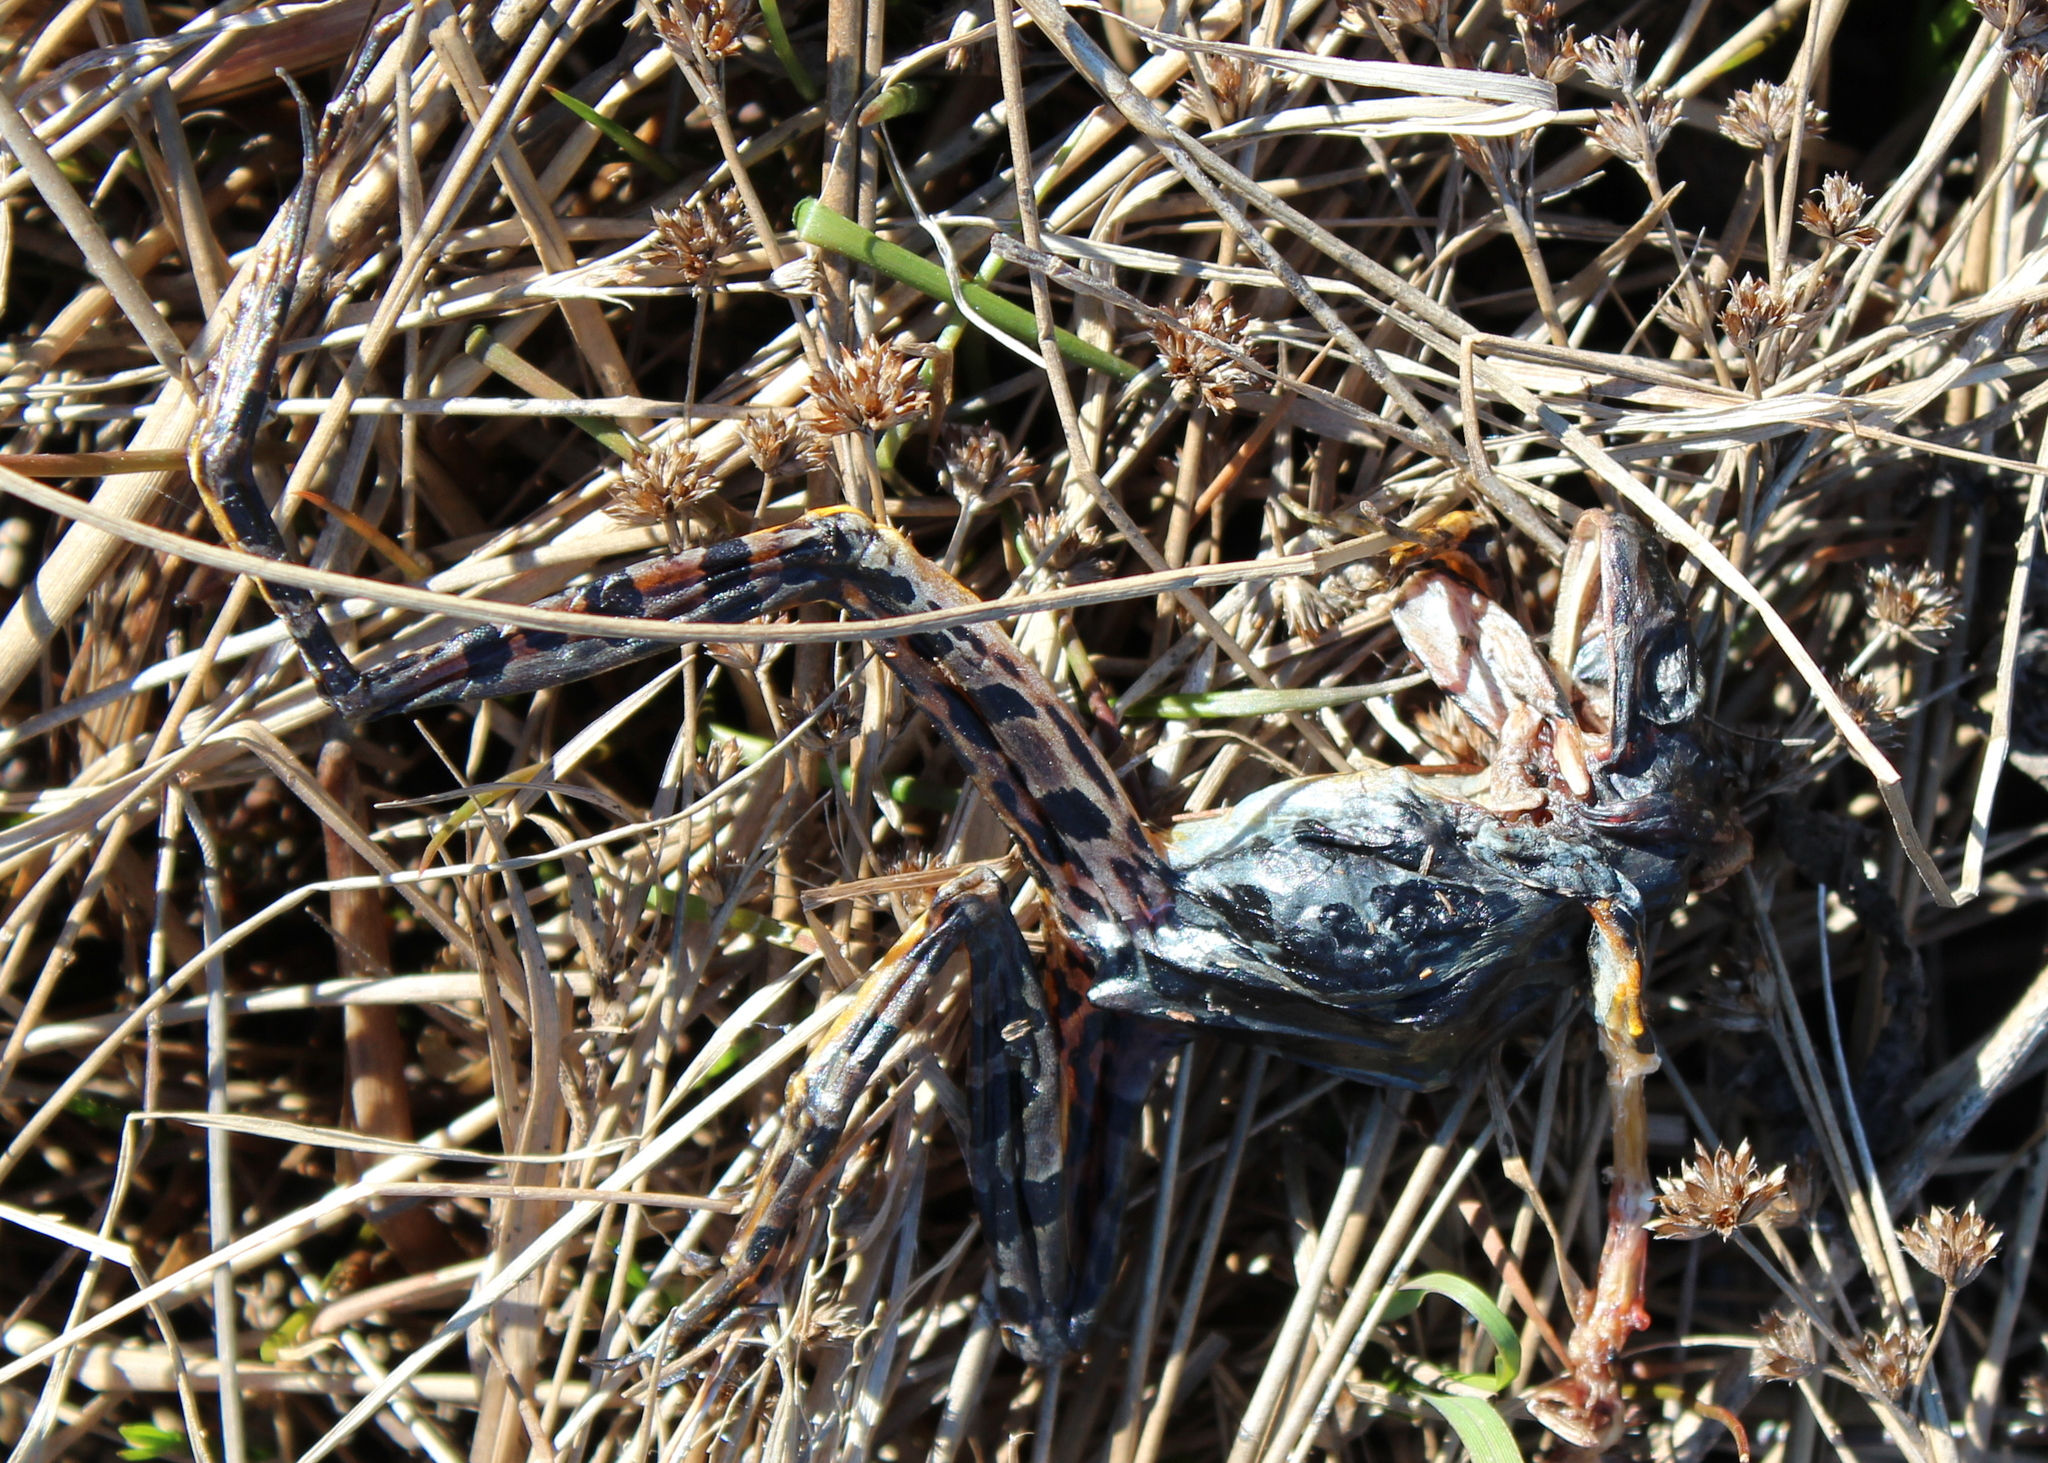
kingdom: Animalia
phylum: Chordata
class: Amphibia
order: Anura
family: Ranidae
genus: Lithobates
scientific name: Lithobates palustris
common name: Pickerel frog
